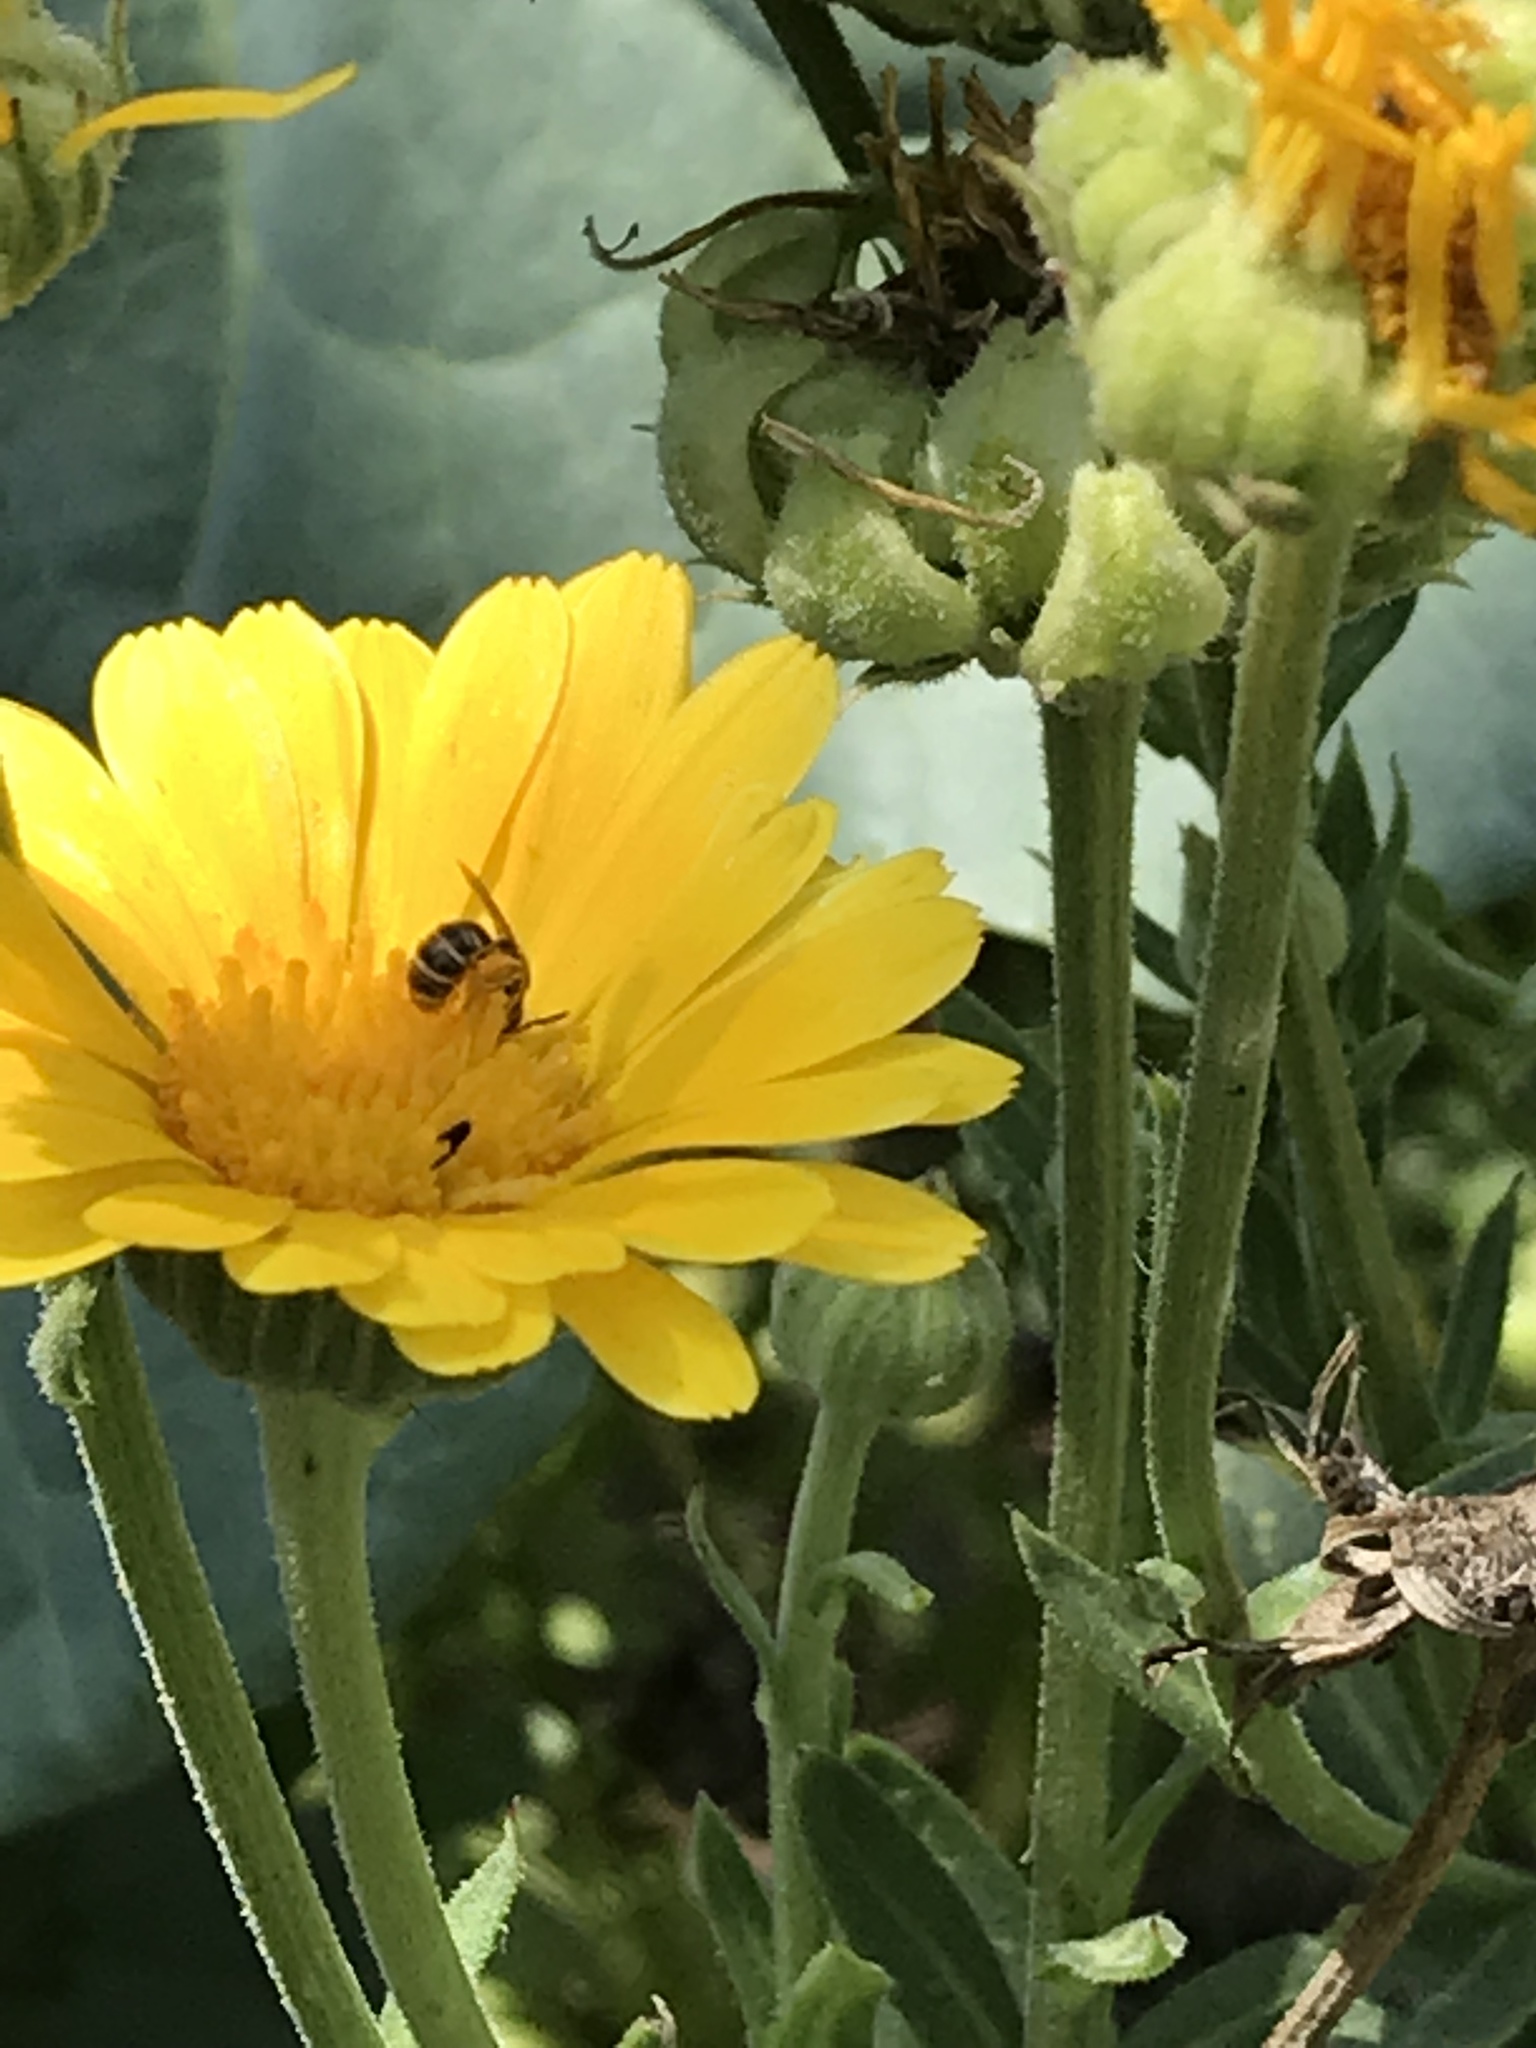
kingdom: Animalia
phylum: Arthropoda
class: Insecta
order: Hymenoptera
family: Halictidae
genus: Halictus
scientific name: Halictus tripartitus
